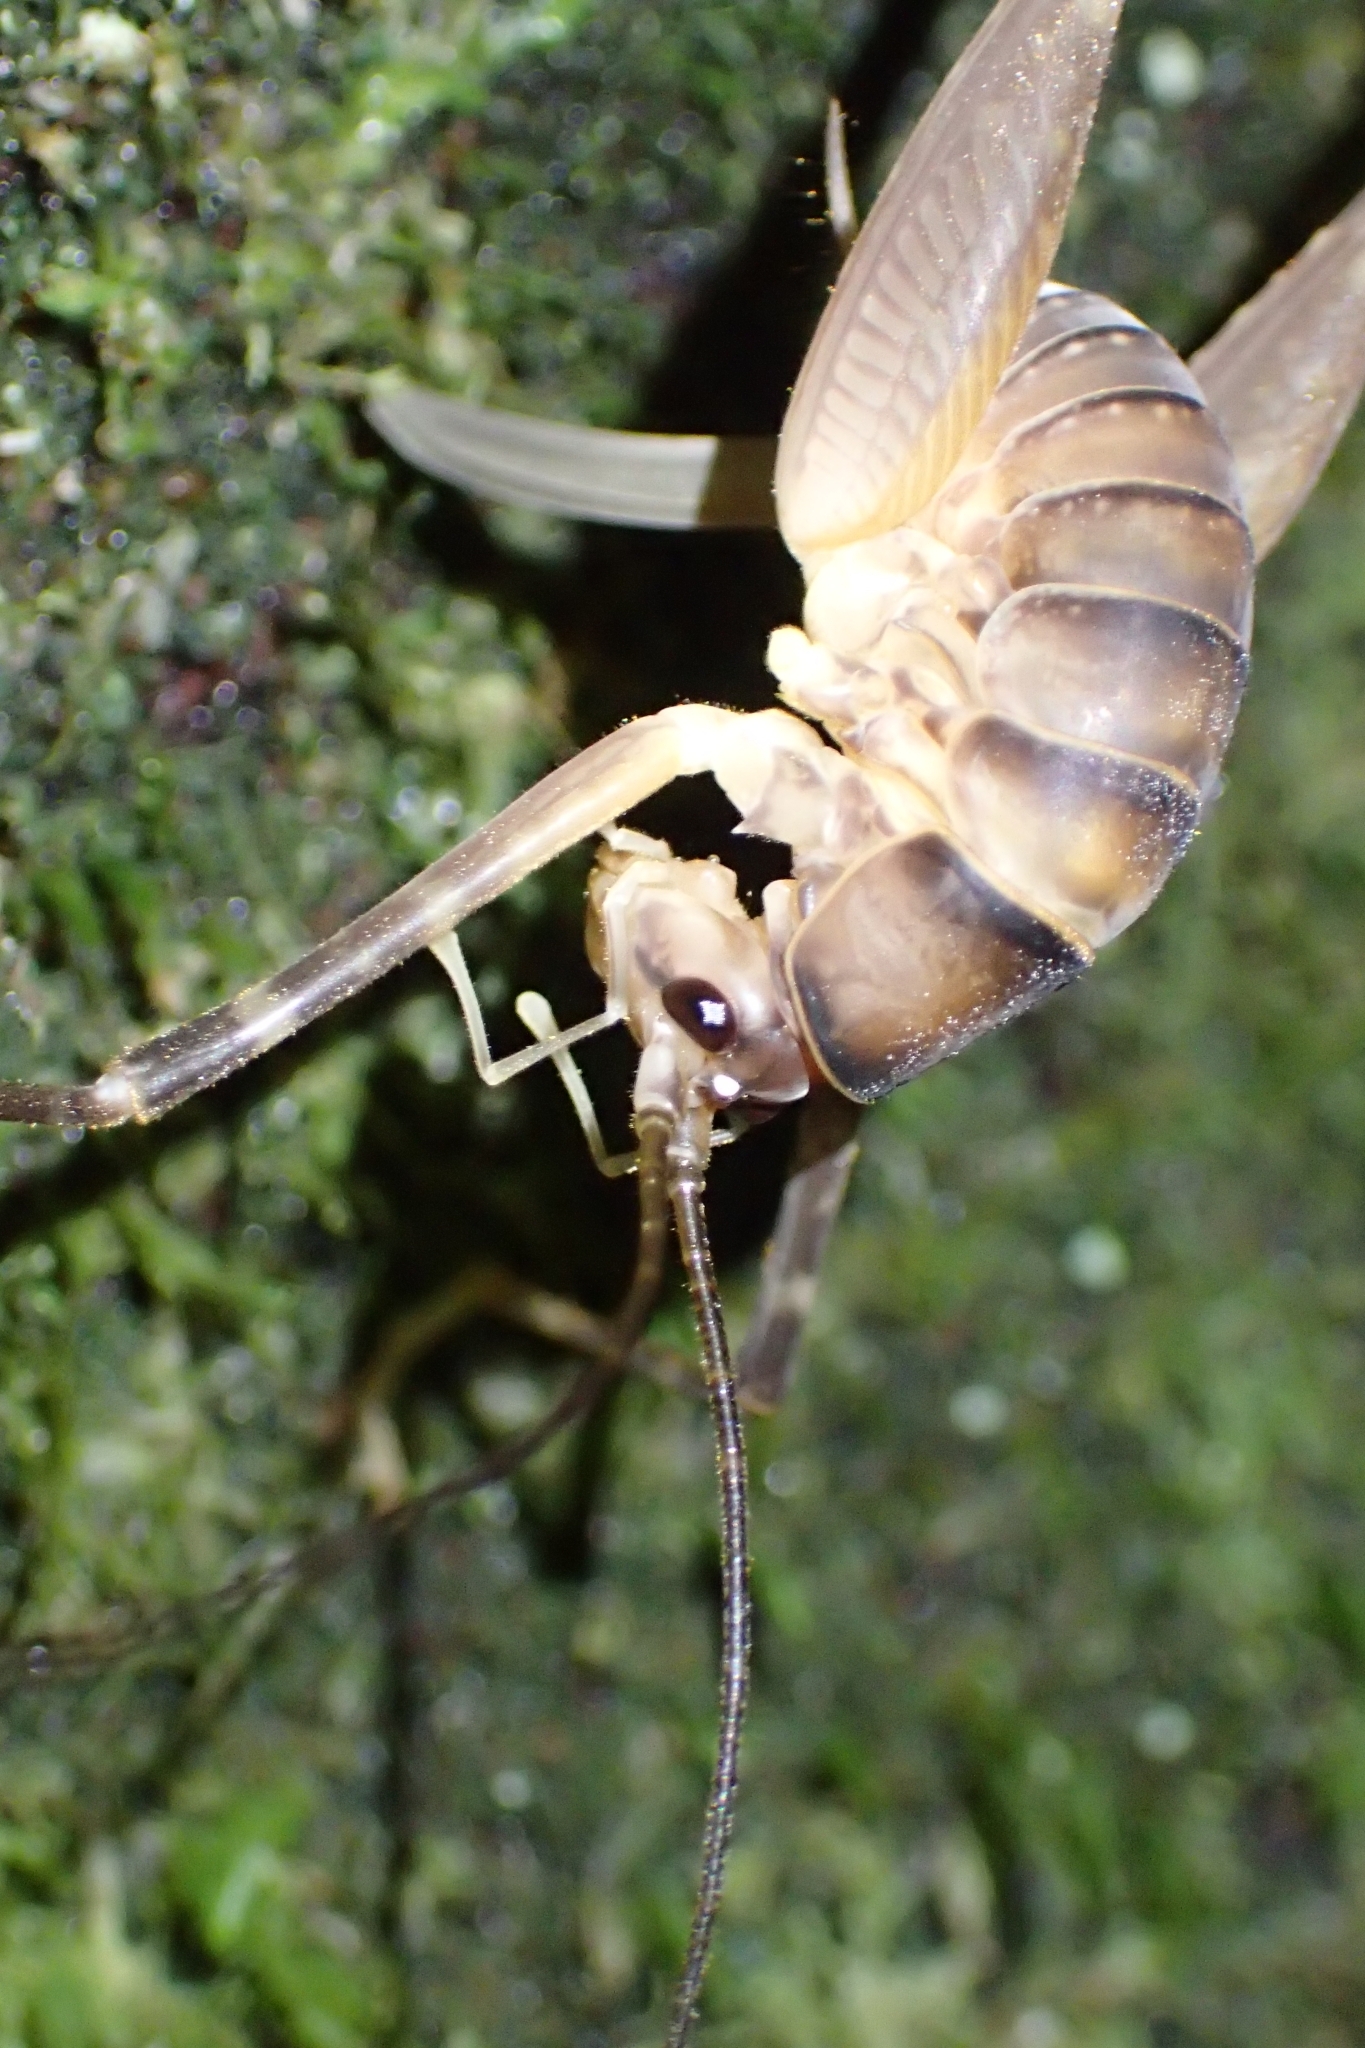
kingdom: Animalia
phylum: Arthropoda
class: Insecta
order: Orthoptera
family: Rhaphidophoridae
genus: Pachyrhamma
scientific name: Pachyrhamma edwardsii
